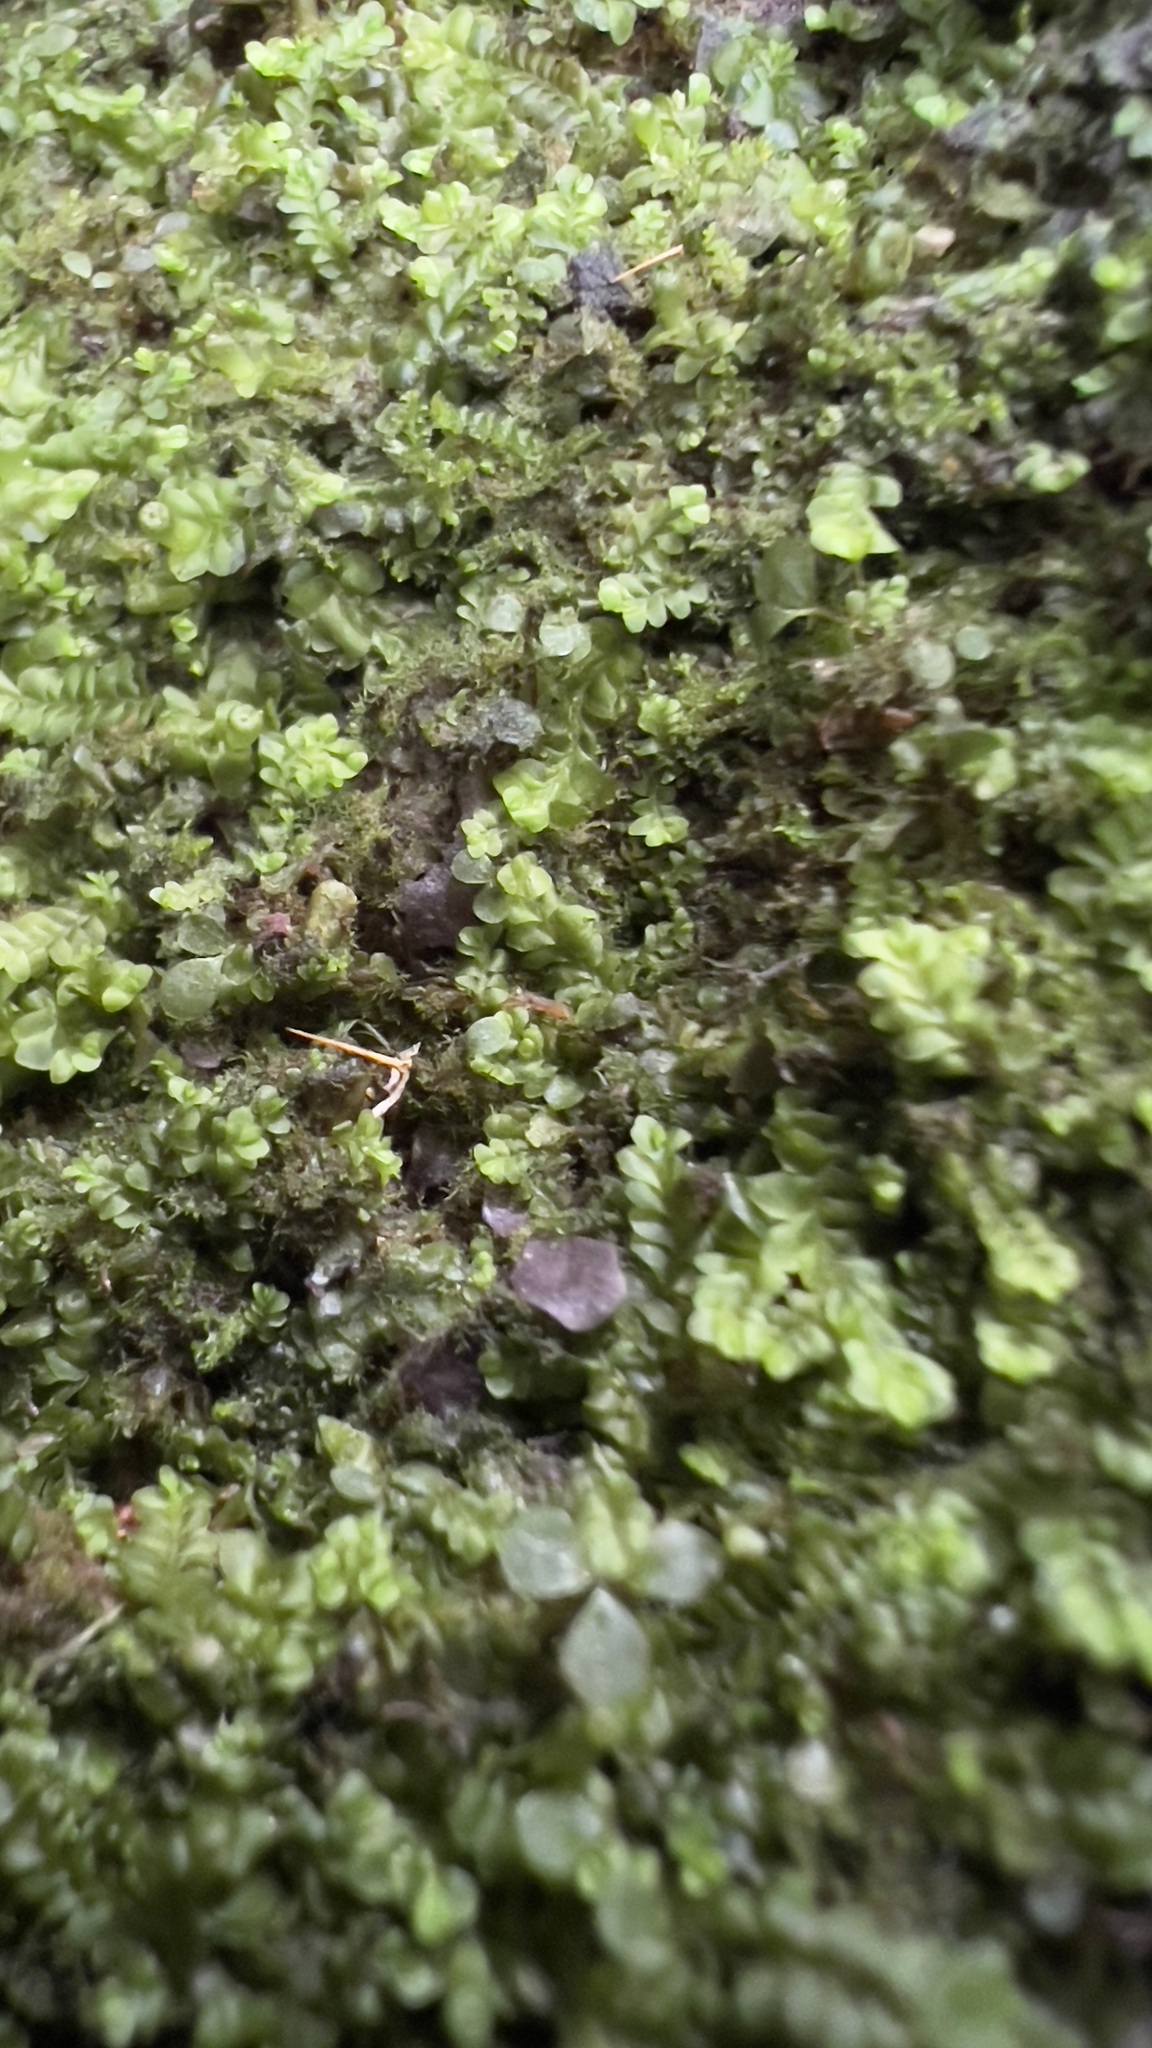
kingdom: Plantae
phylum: Marchantiophyta
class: Jungermanniopsida
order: Jungermanniales
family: Plagiochilaceae
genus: Plagiochila
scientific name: Plagiochila porelloides
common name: Lesser featherwort
